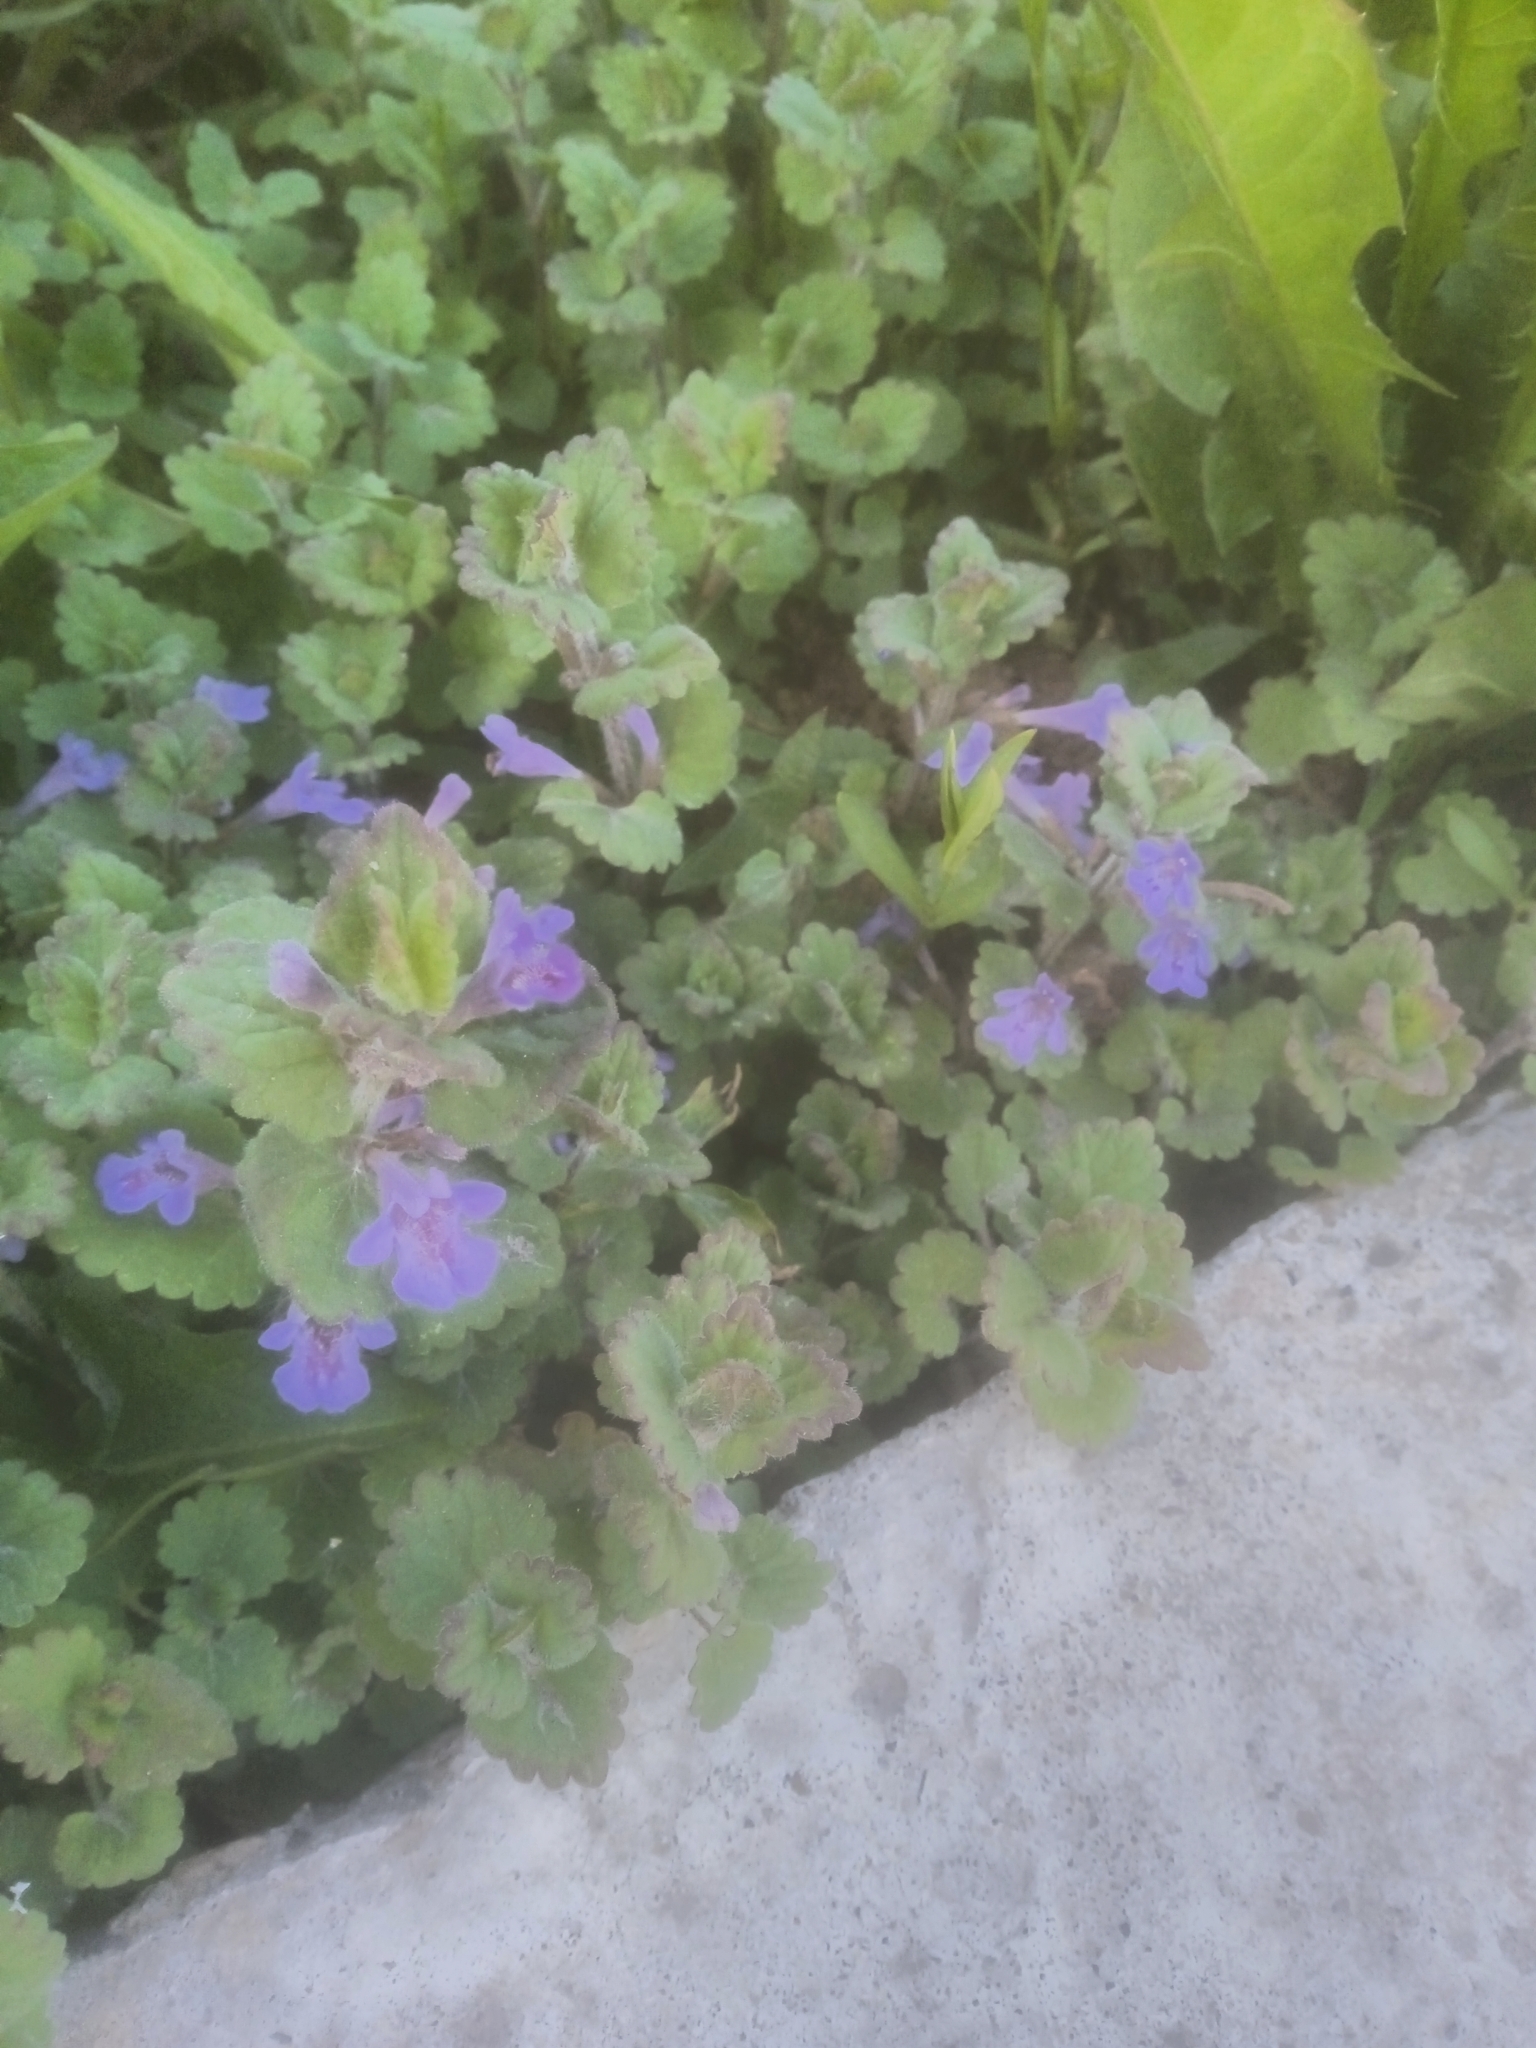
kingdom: Plantae
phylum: Tracheophyta
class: Magnoliopsida
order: Lamiales
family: Lamiaceae
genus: Glechoma
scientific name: Glechoma hederacea
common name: Ground ivy
